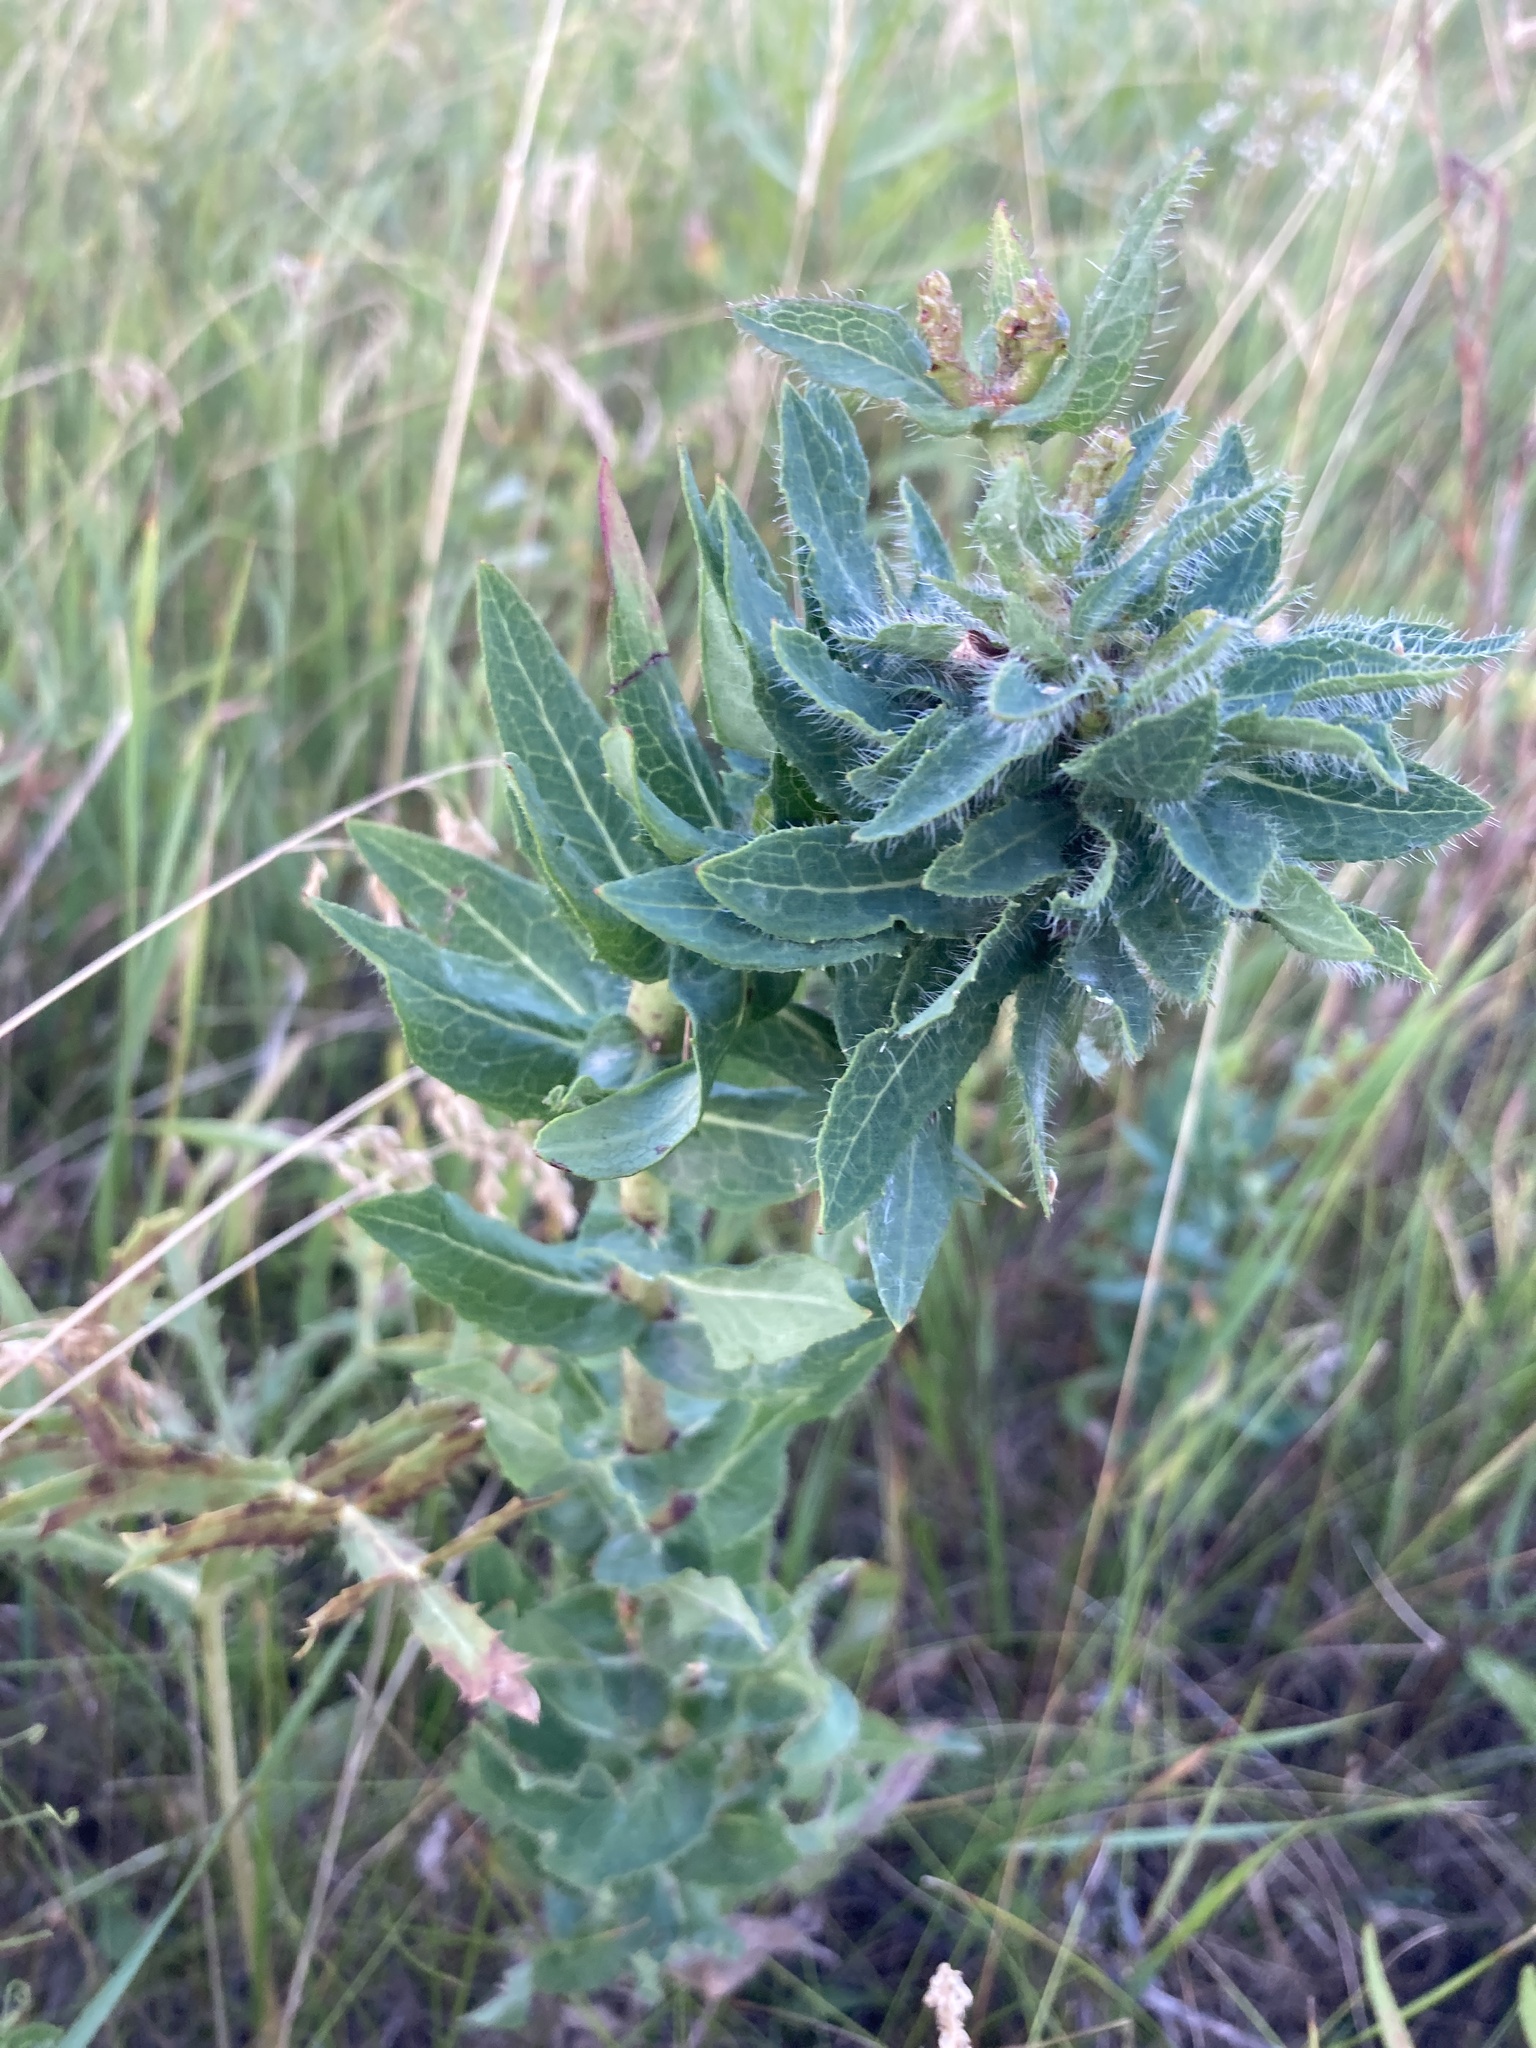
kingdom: Plantae
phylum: Tracheophyta
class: Magnoliopsida
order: Asterales
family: Asteraceae
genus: Hieracium
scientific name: Hieracium virosum
